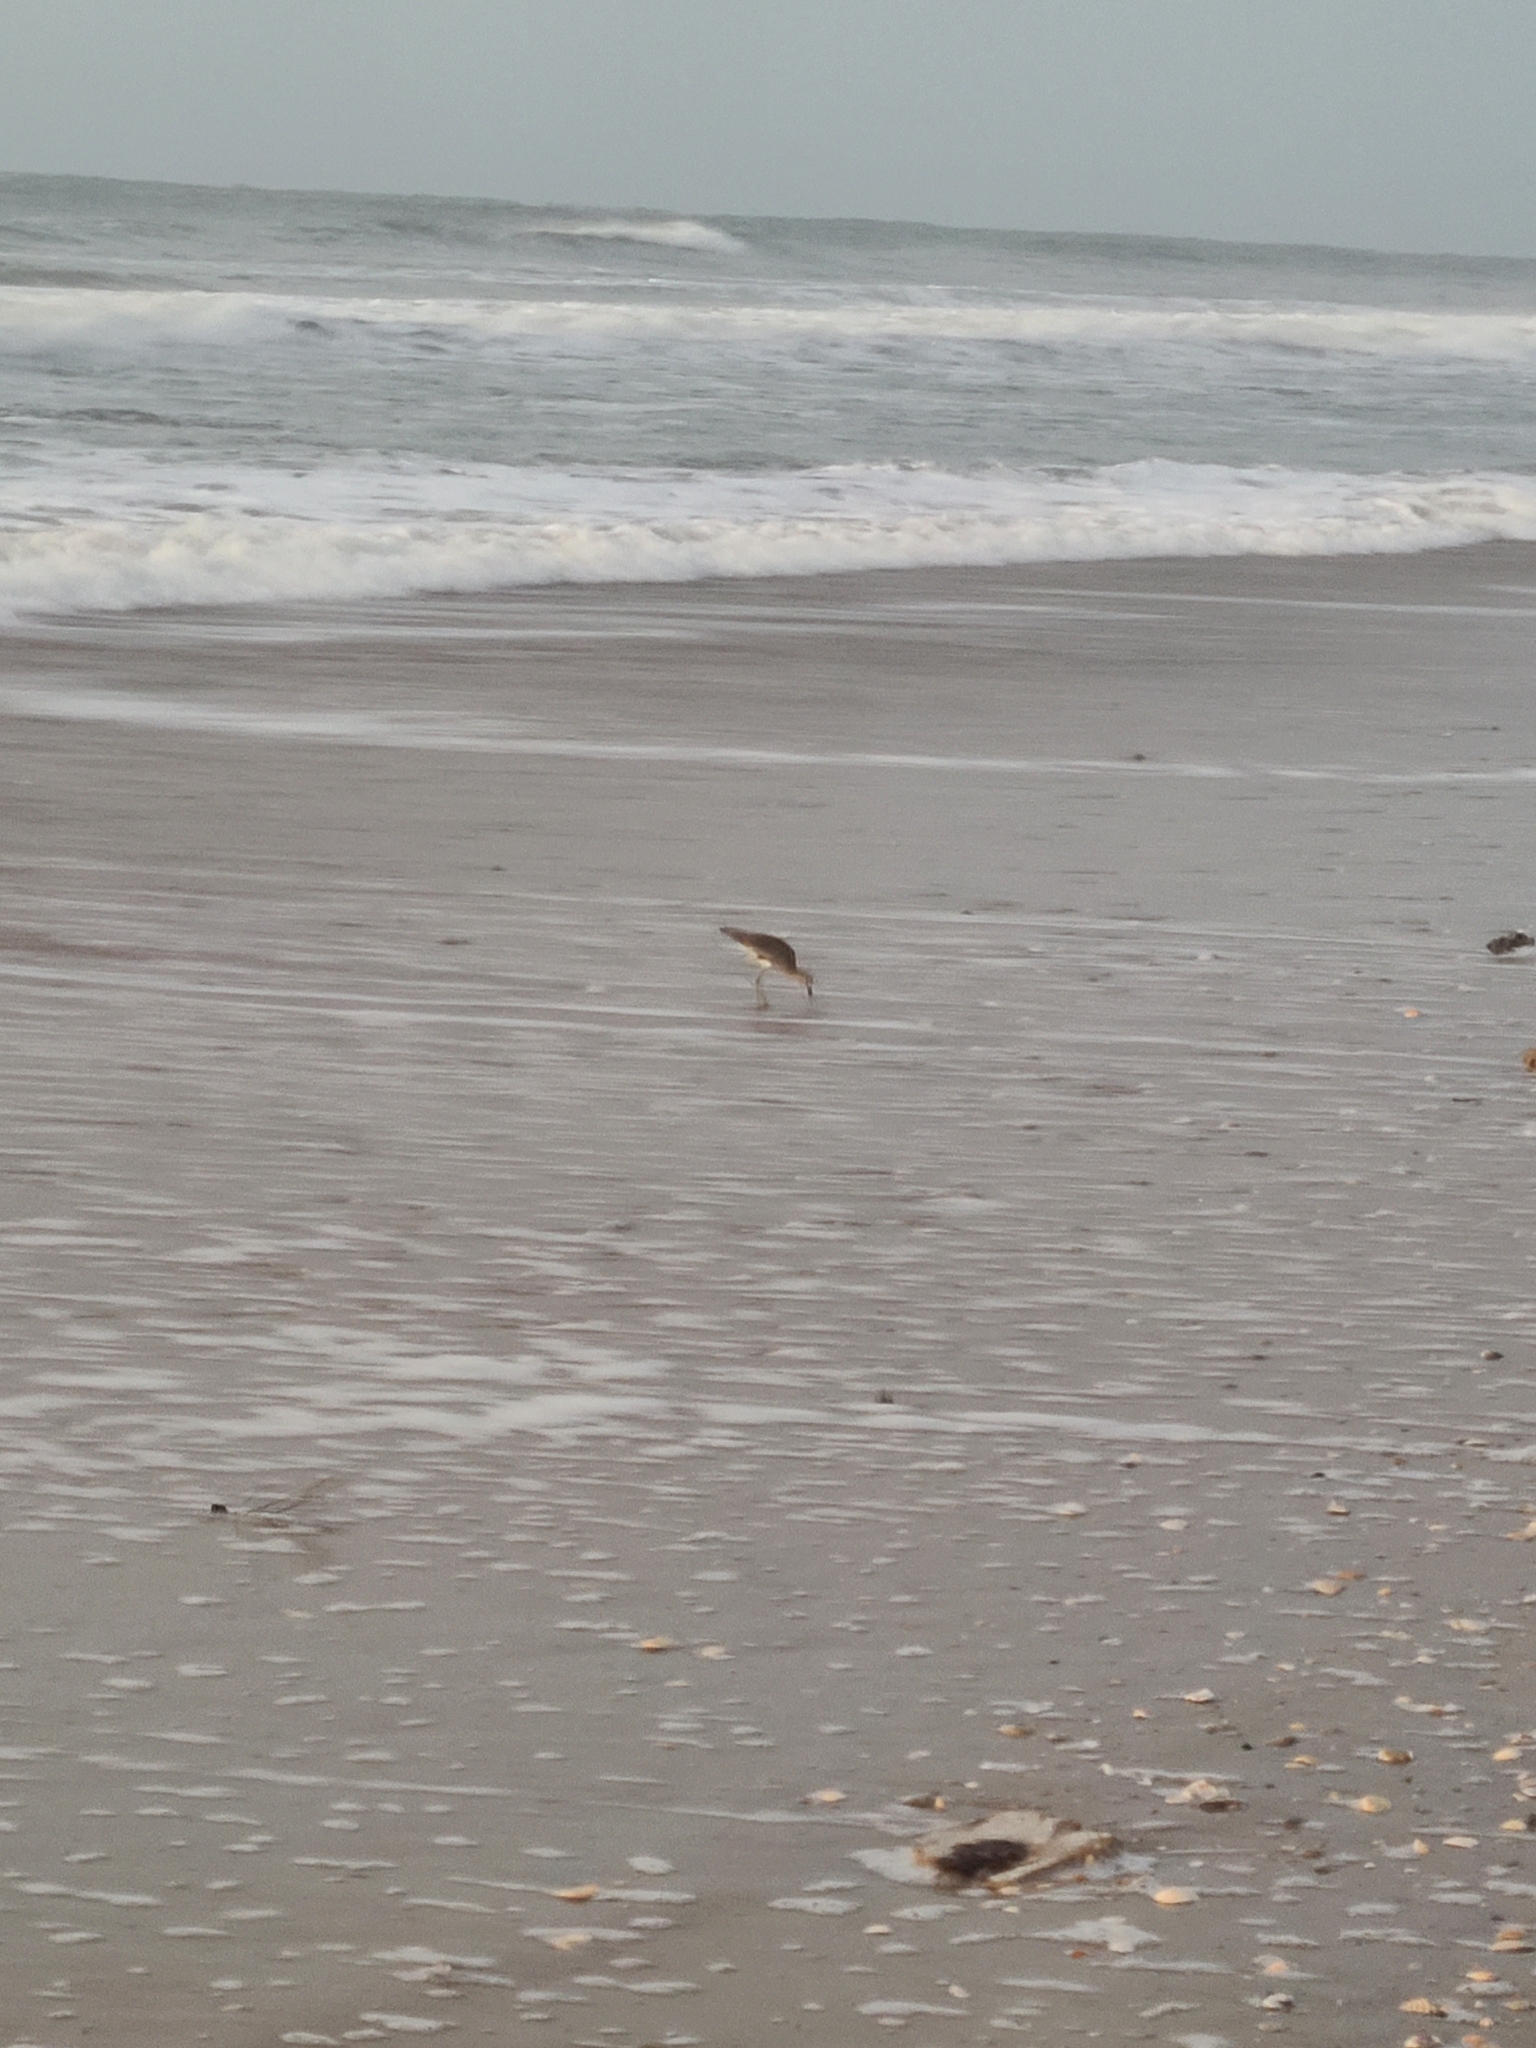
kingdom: Animalia
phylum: Chordata
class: Aves
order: Charadriiformes
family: Scolopacidae
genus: Tringa
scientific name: Tringa semipalmata
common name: Willet
